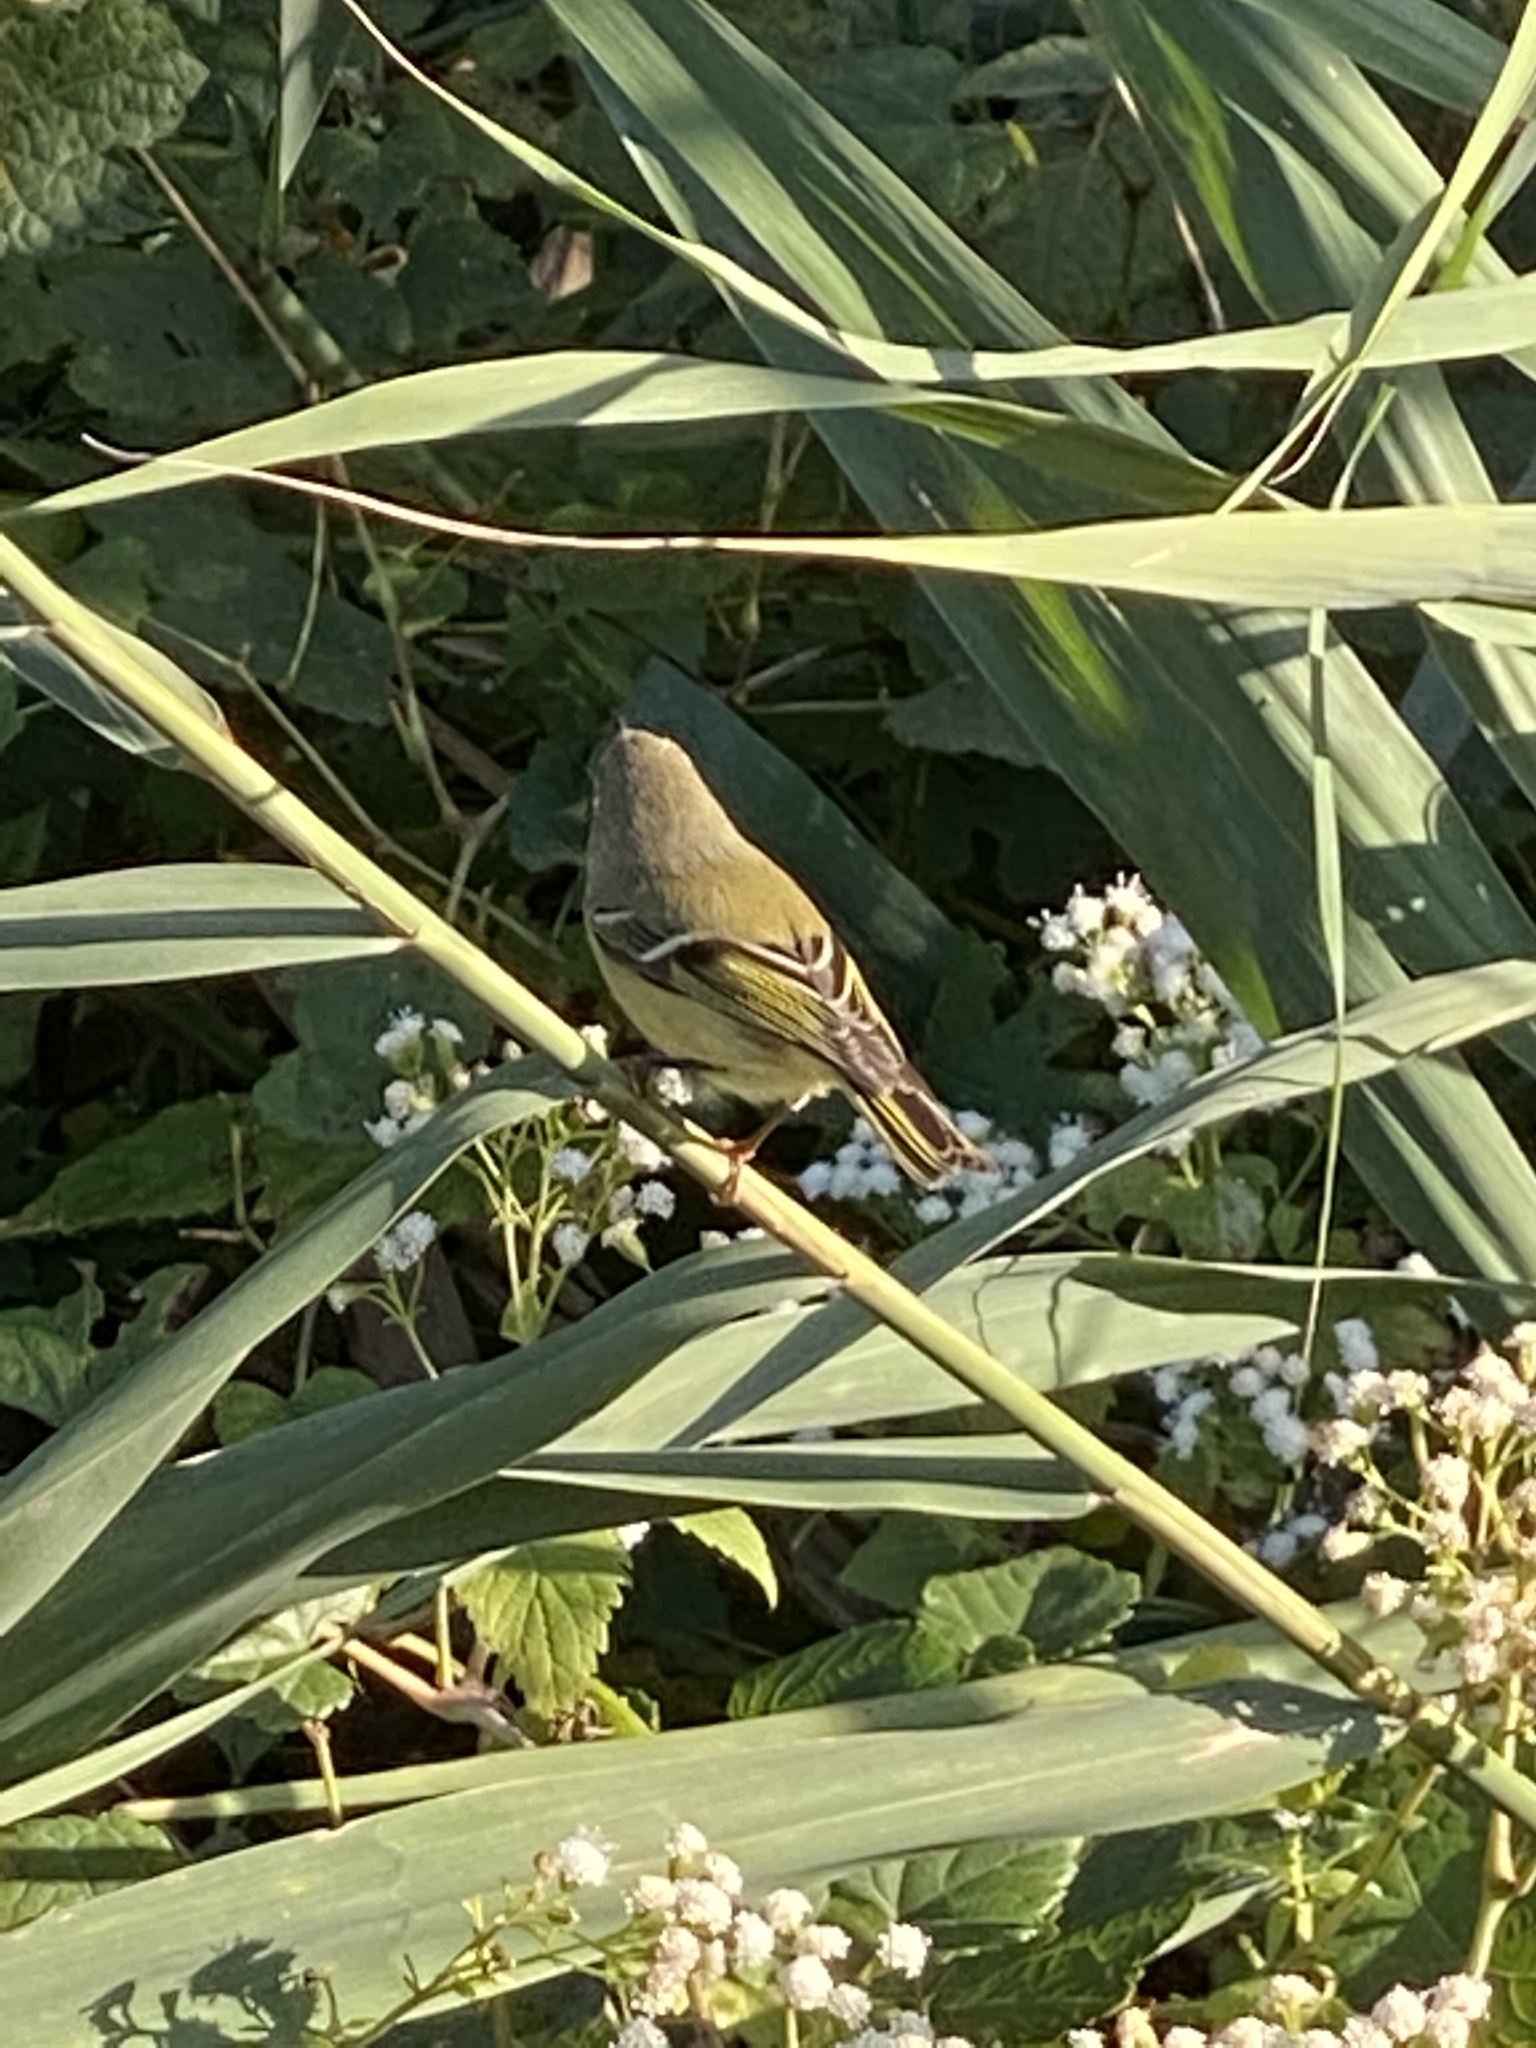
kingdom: Animalia
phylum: Chordata
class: Aves
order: Passeriformes
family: Regulidae
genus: Regulus
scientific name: Regulus calendula
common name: Ruby-crowned kinglet
